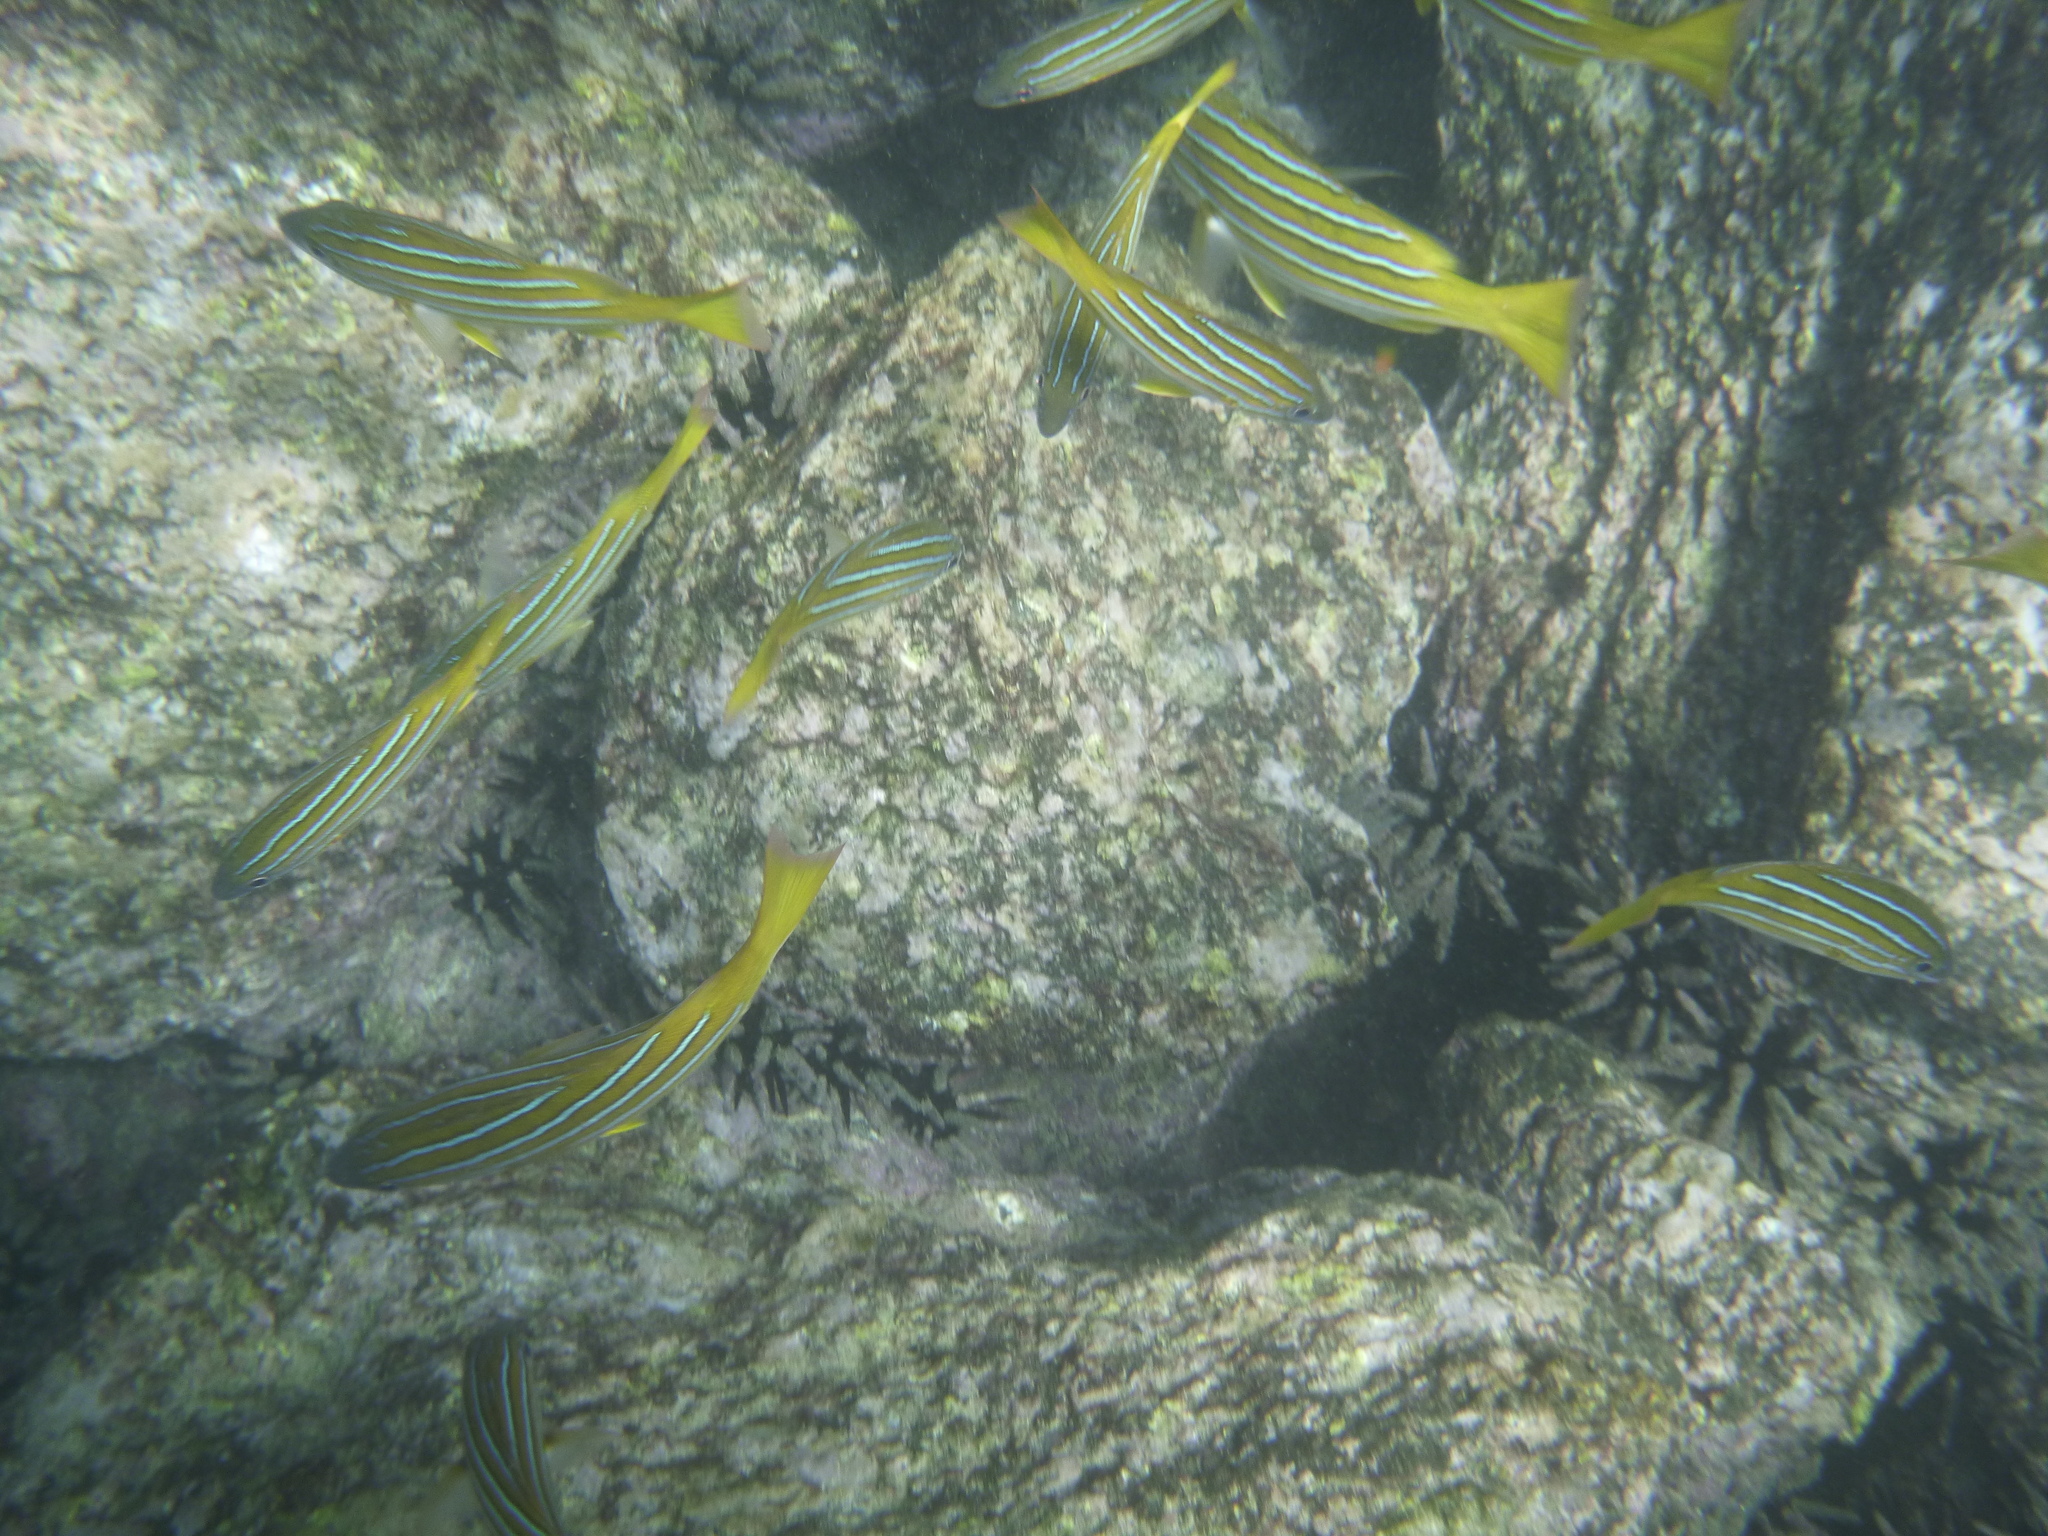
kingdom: Animalia
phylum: Chordata
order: Perciformes
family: Lutjanidae
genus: Lutjanus
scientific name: Lutjanus viridis
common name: Blue and gold snapper
